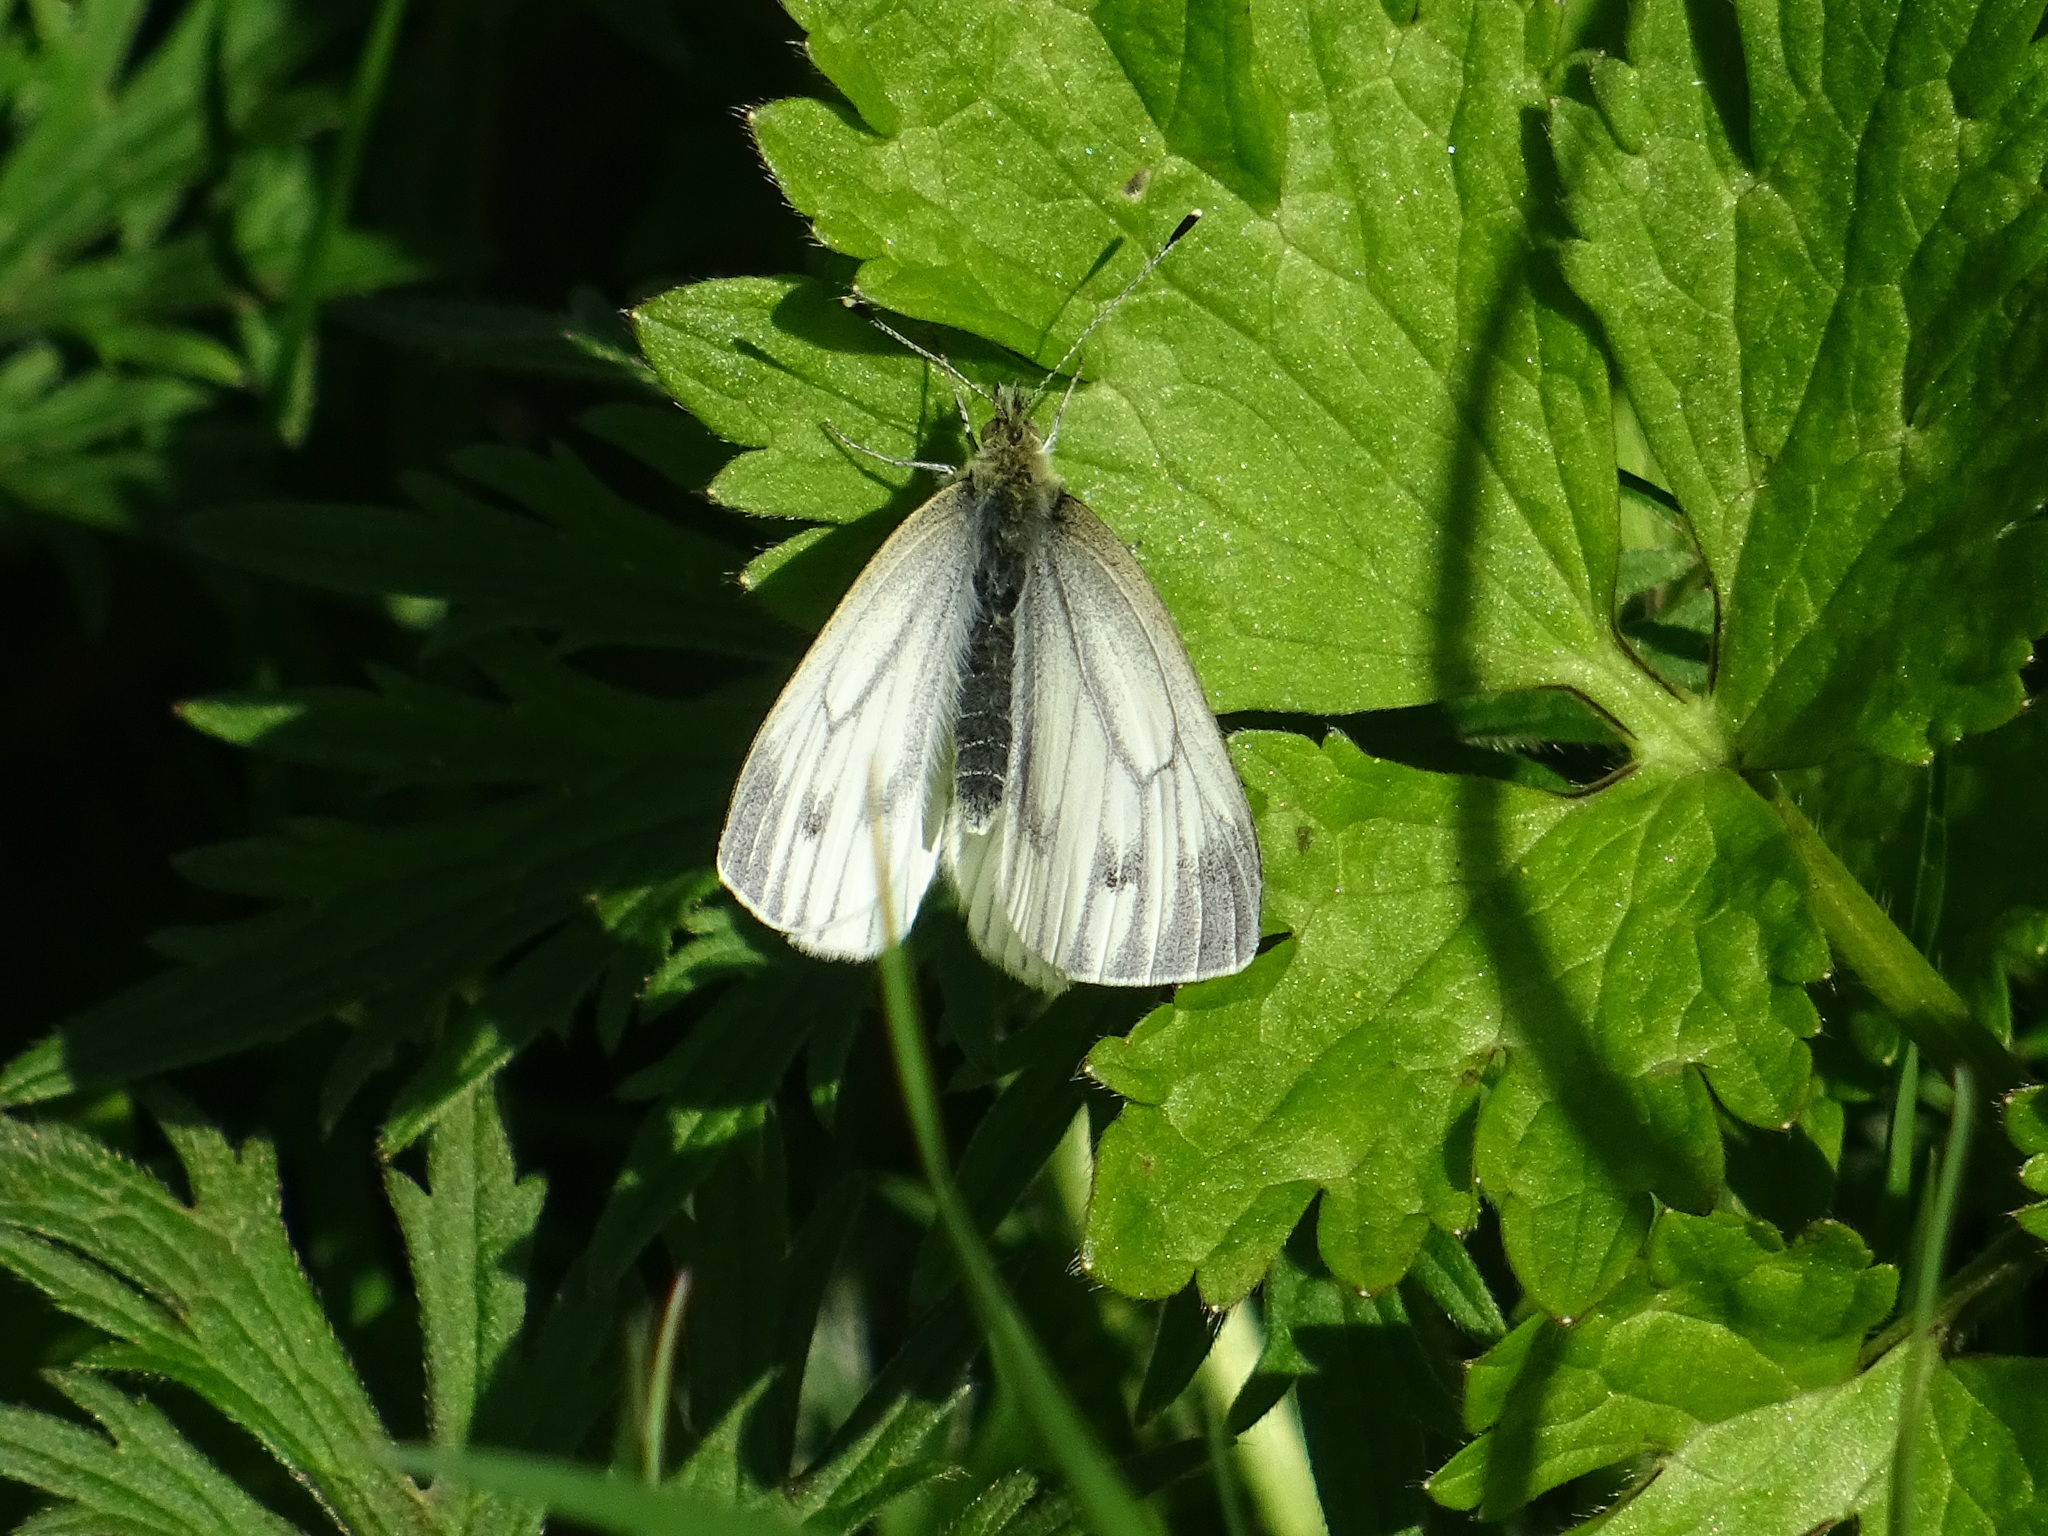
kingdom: Animalia
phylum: Arthropoda
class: Insecta
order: Lepidoptera
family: Pieridae
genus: Pieris
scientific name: Pieris napi
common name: Green-veined white
